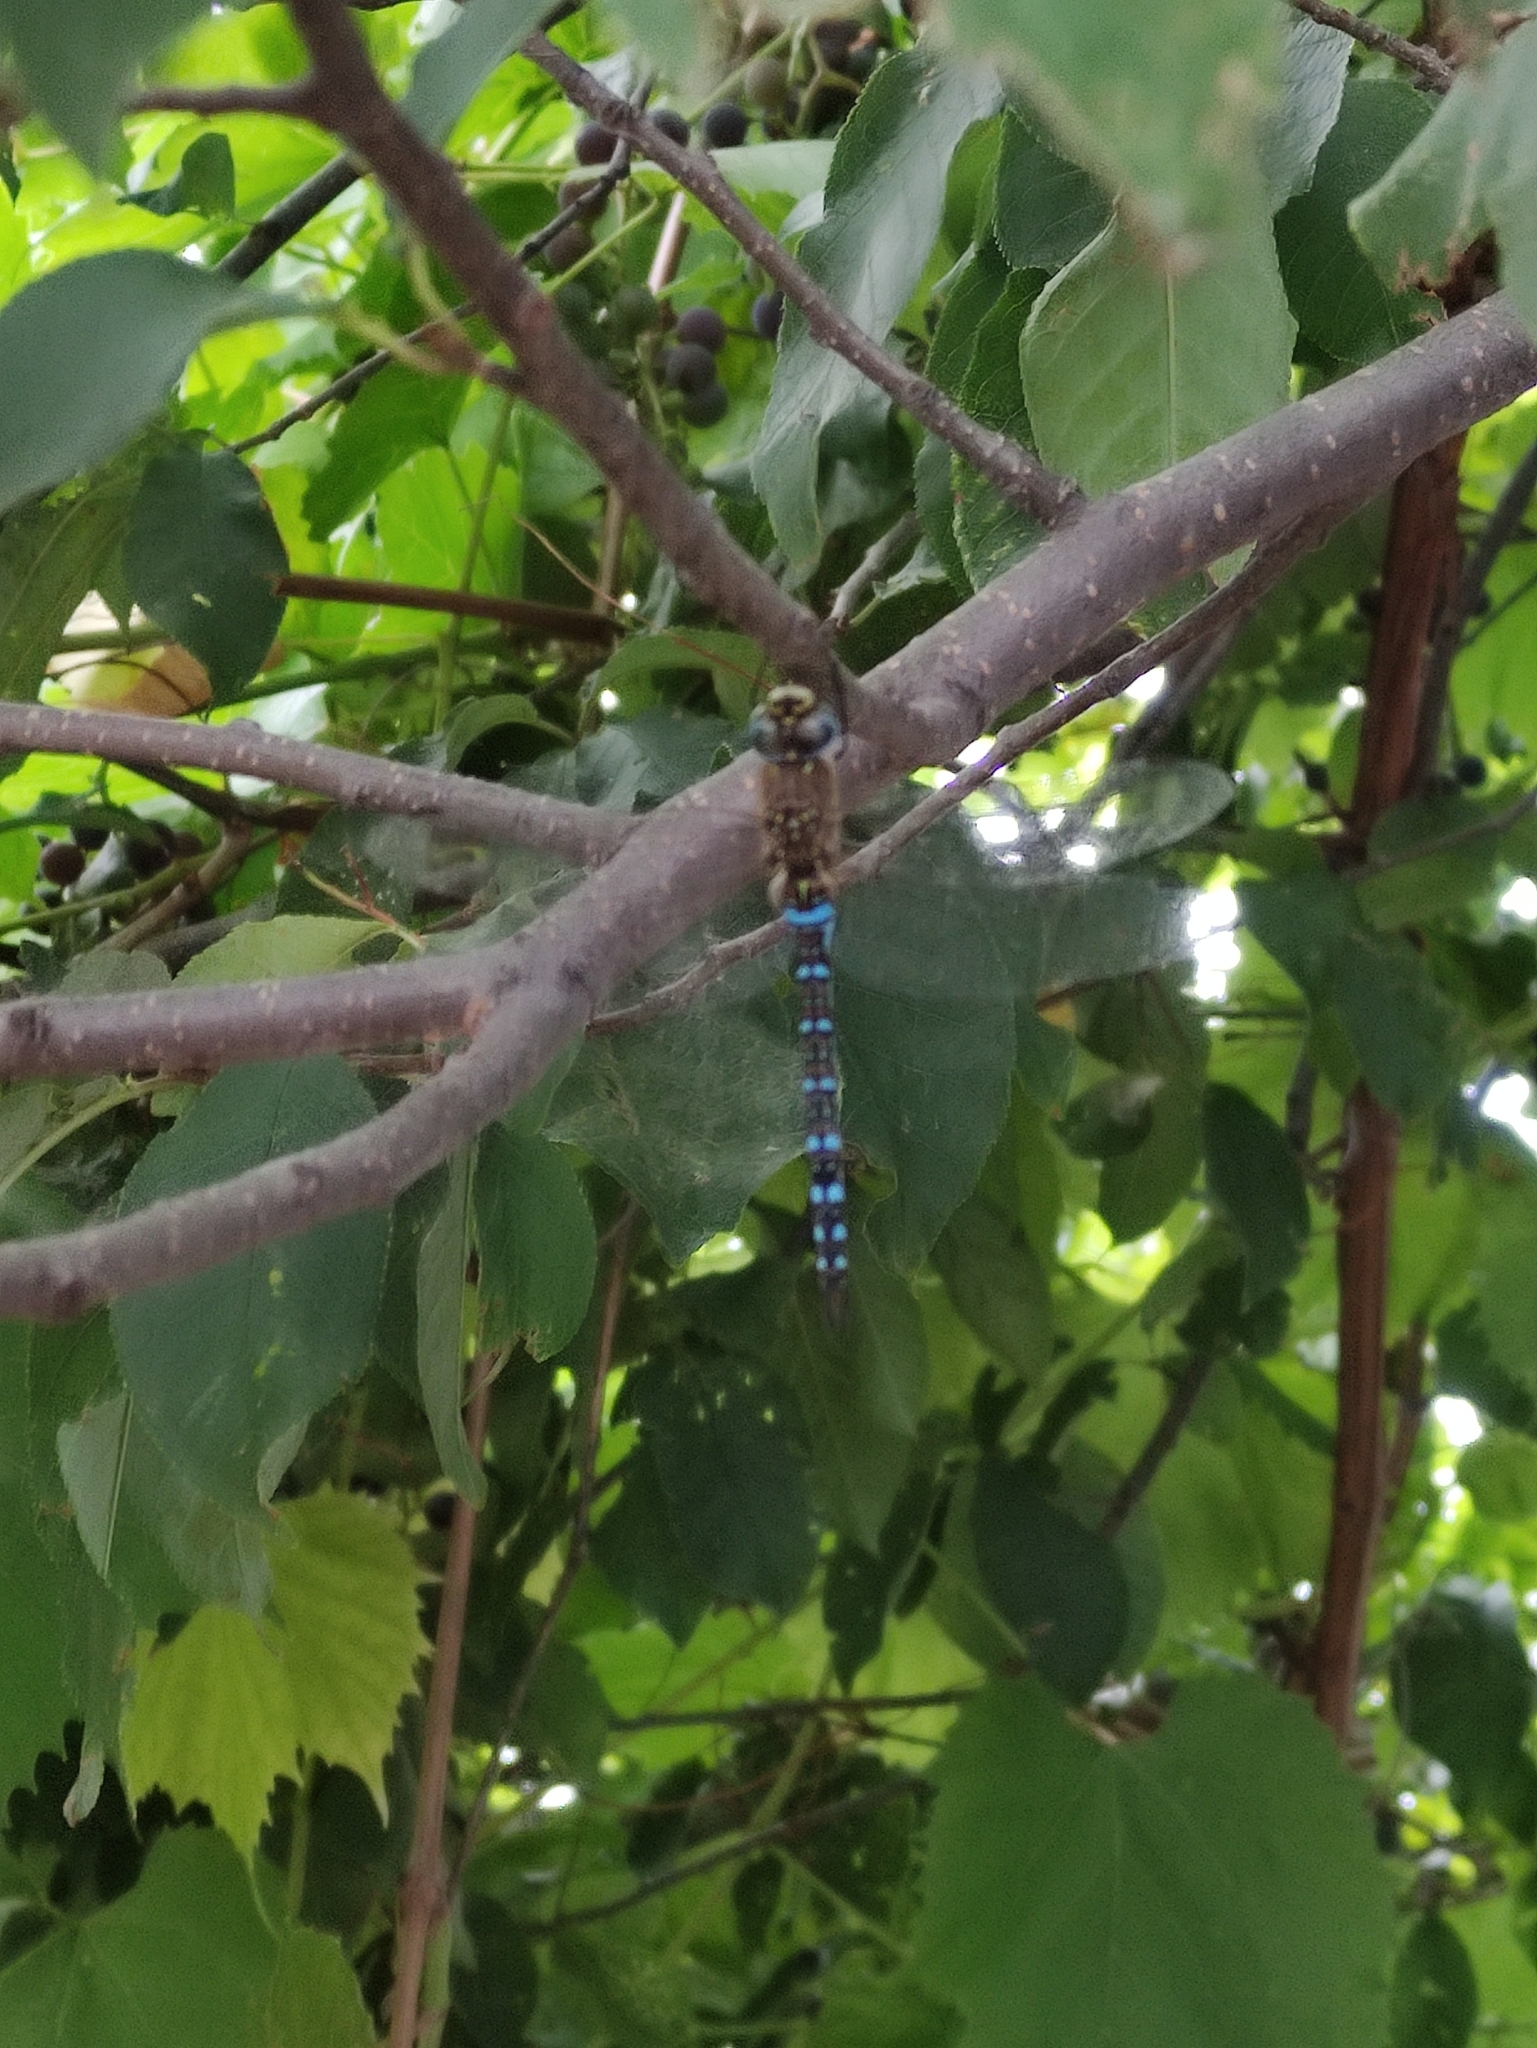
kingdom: Animalia
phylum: Arthropoda
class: Insecta
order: Odonata
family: Aeshnidae
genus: Aeshna
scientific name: Aeshna mixta
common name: Migrant hawker
